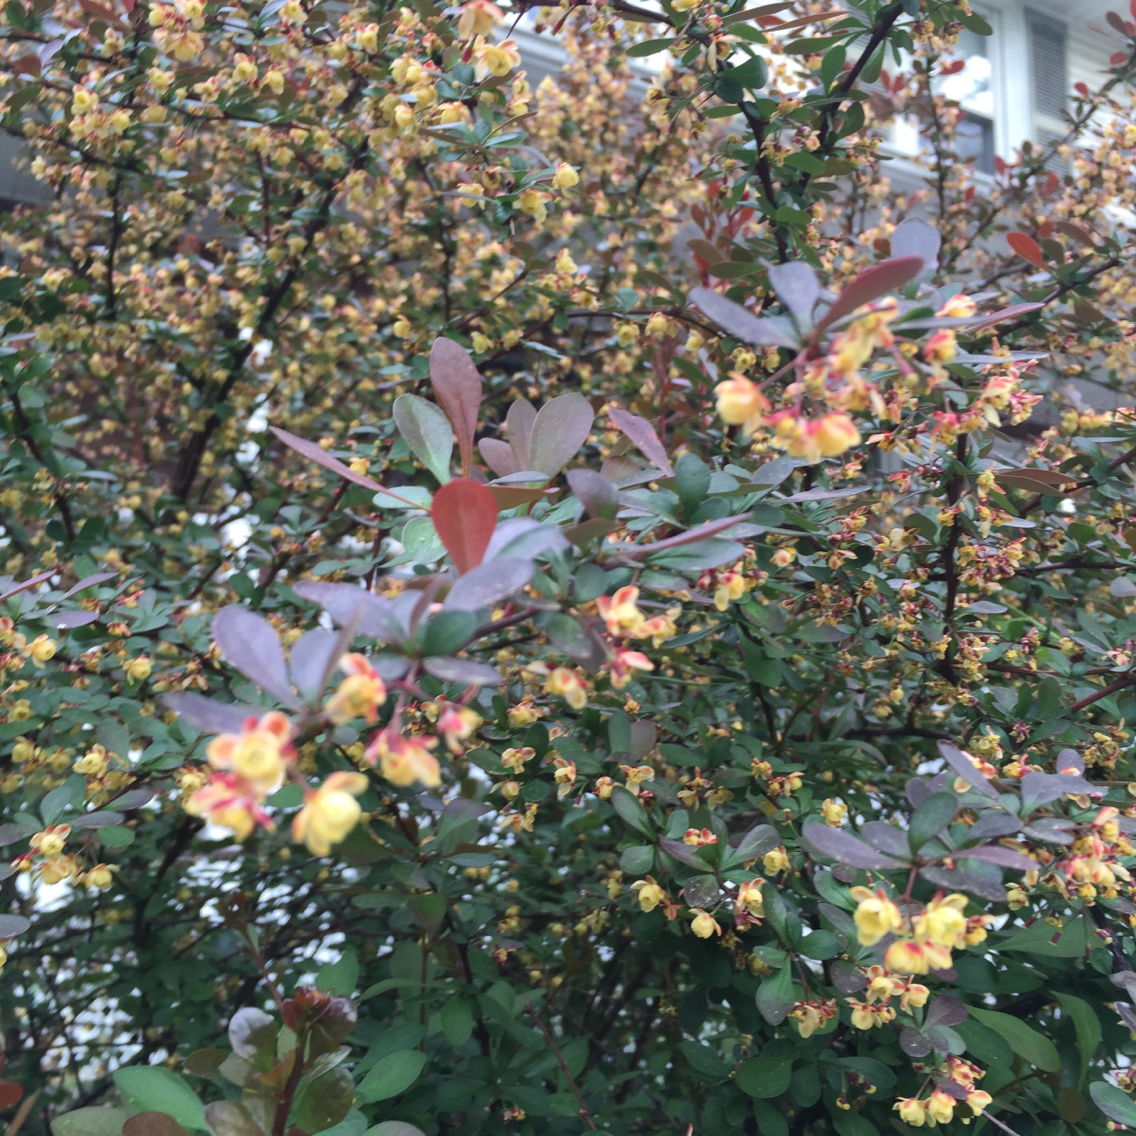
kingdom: Plantae
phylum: Tracheophyta
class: Magnoliopsida
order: Ranunculales
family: Berberidaceae
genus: Berberis
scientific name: Berberis thunbergii
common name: Japanese barberry
